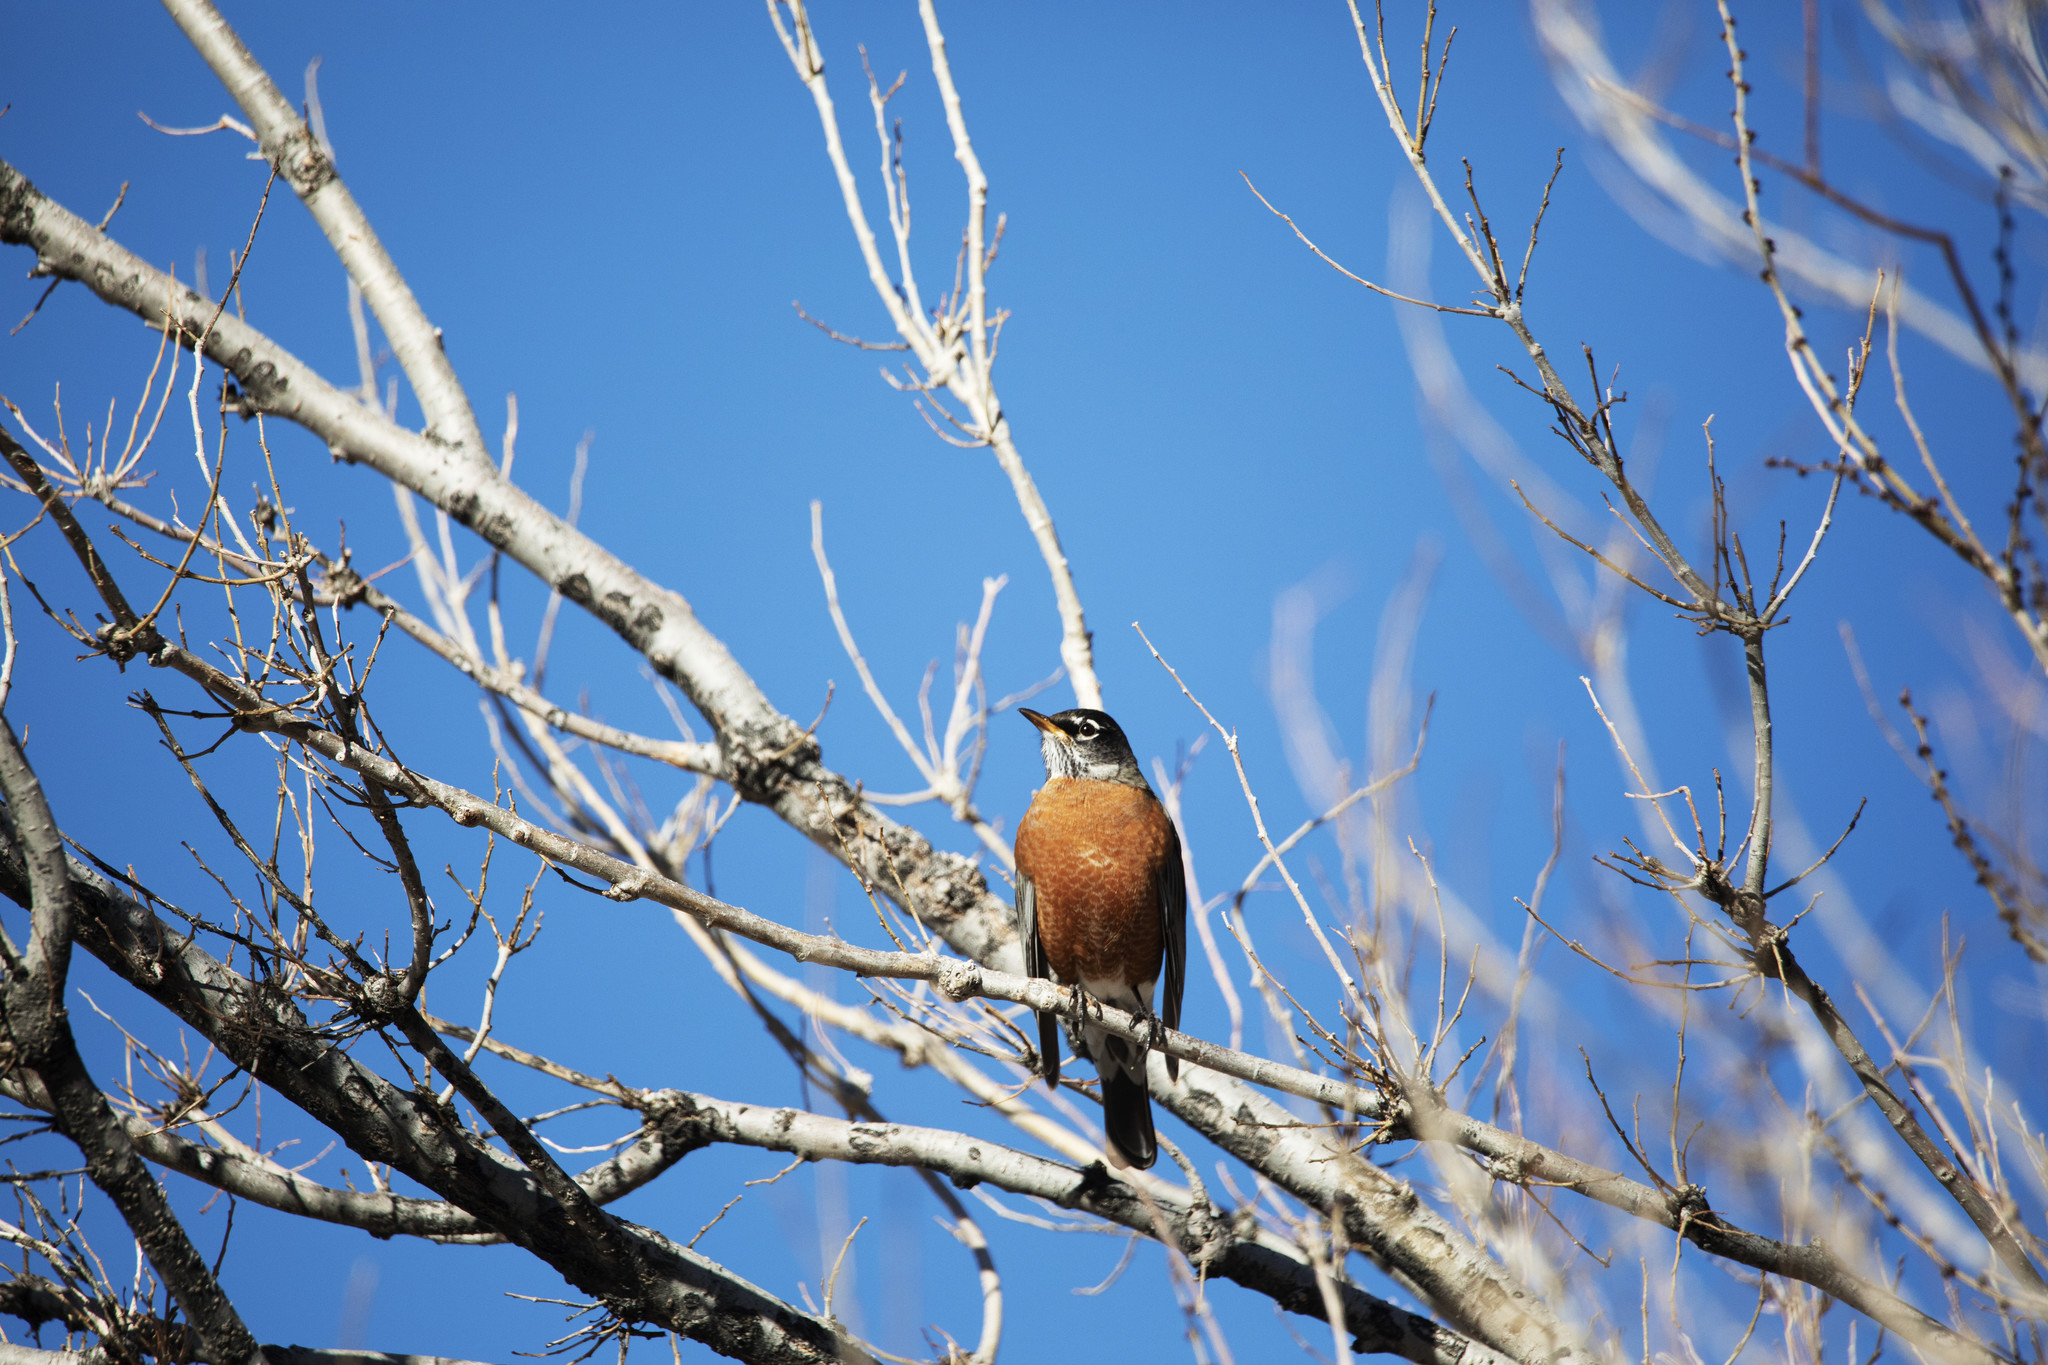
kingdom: Animalia
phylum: Chordata
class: Aves
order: Passeriformes
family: Turdidae
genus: Turdus
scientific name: Turdus migratorius
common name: American robin
